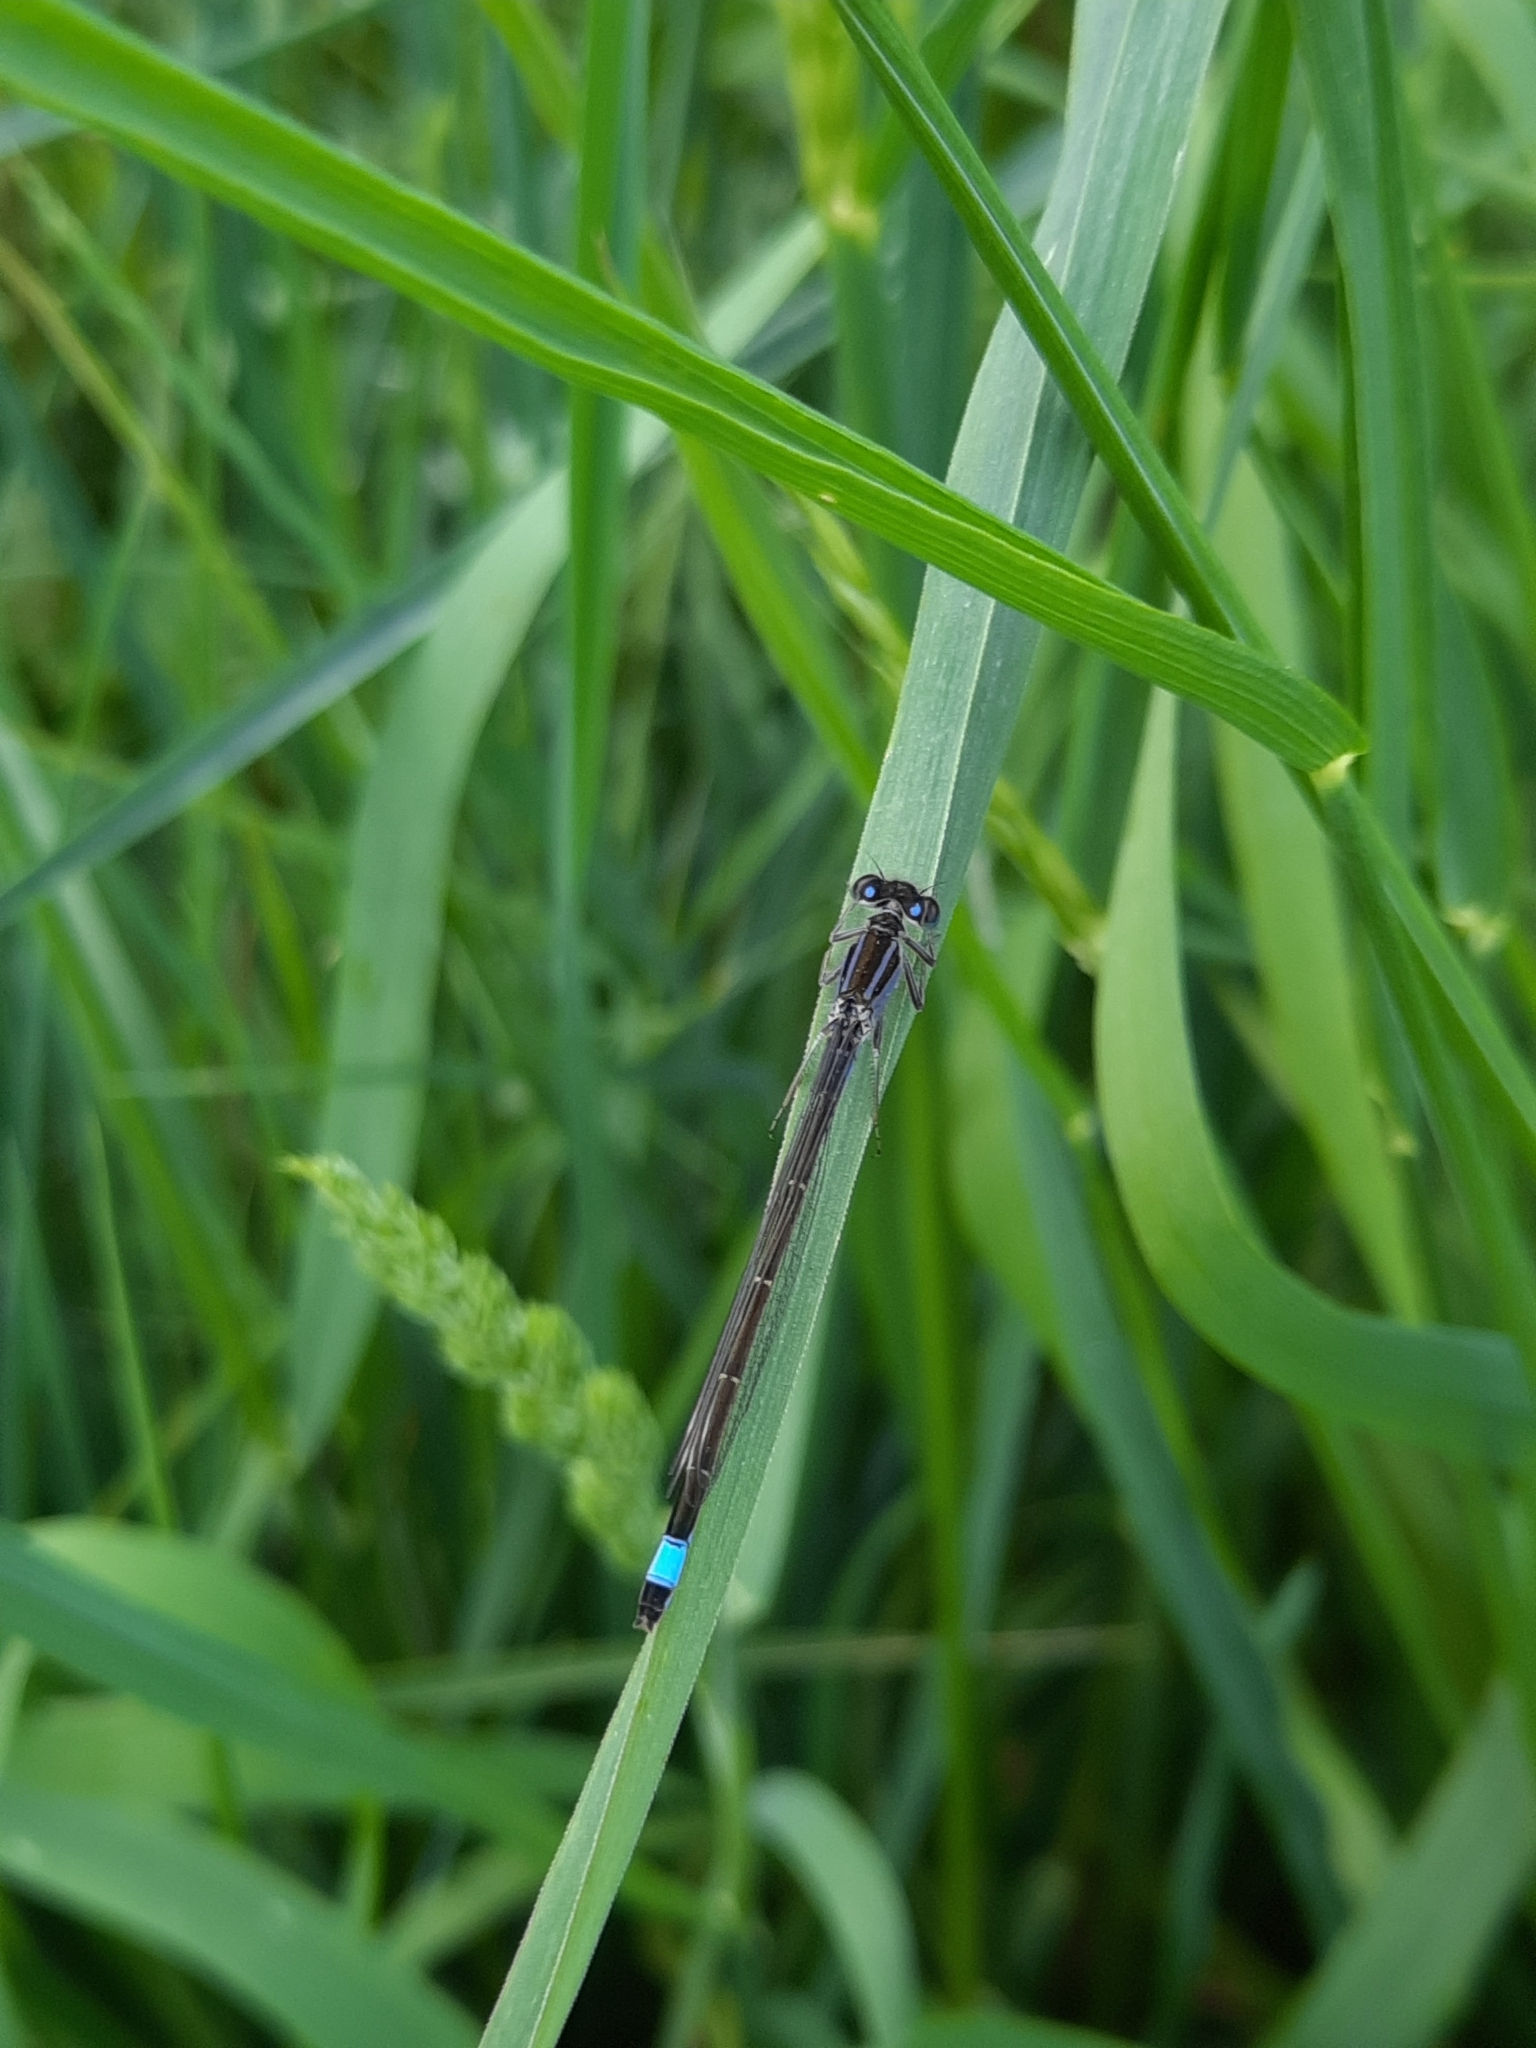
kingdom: Animalia
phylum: Arthropoda
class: Insecta
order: Odonata
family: Coenagrionidae
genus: Ischnura
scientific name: Ischnura elegans
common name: Blue-tailed damselfly
